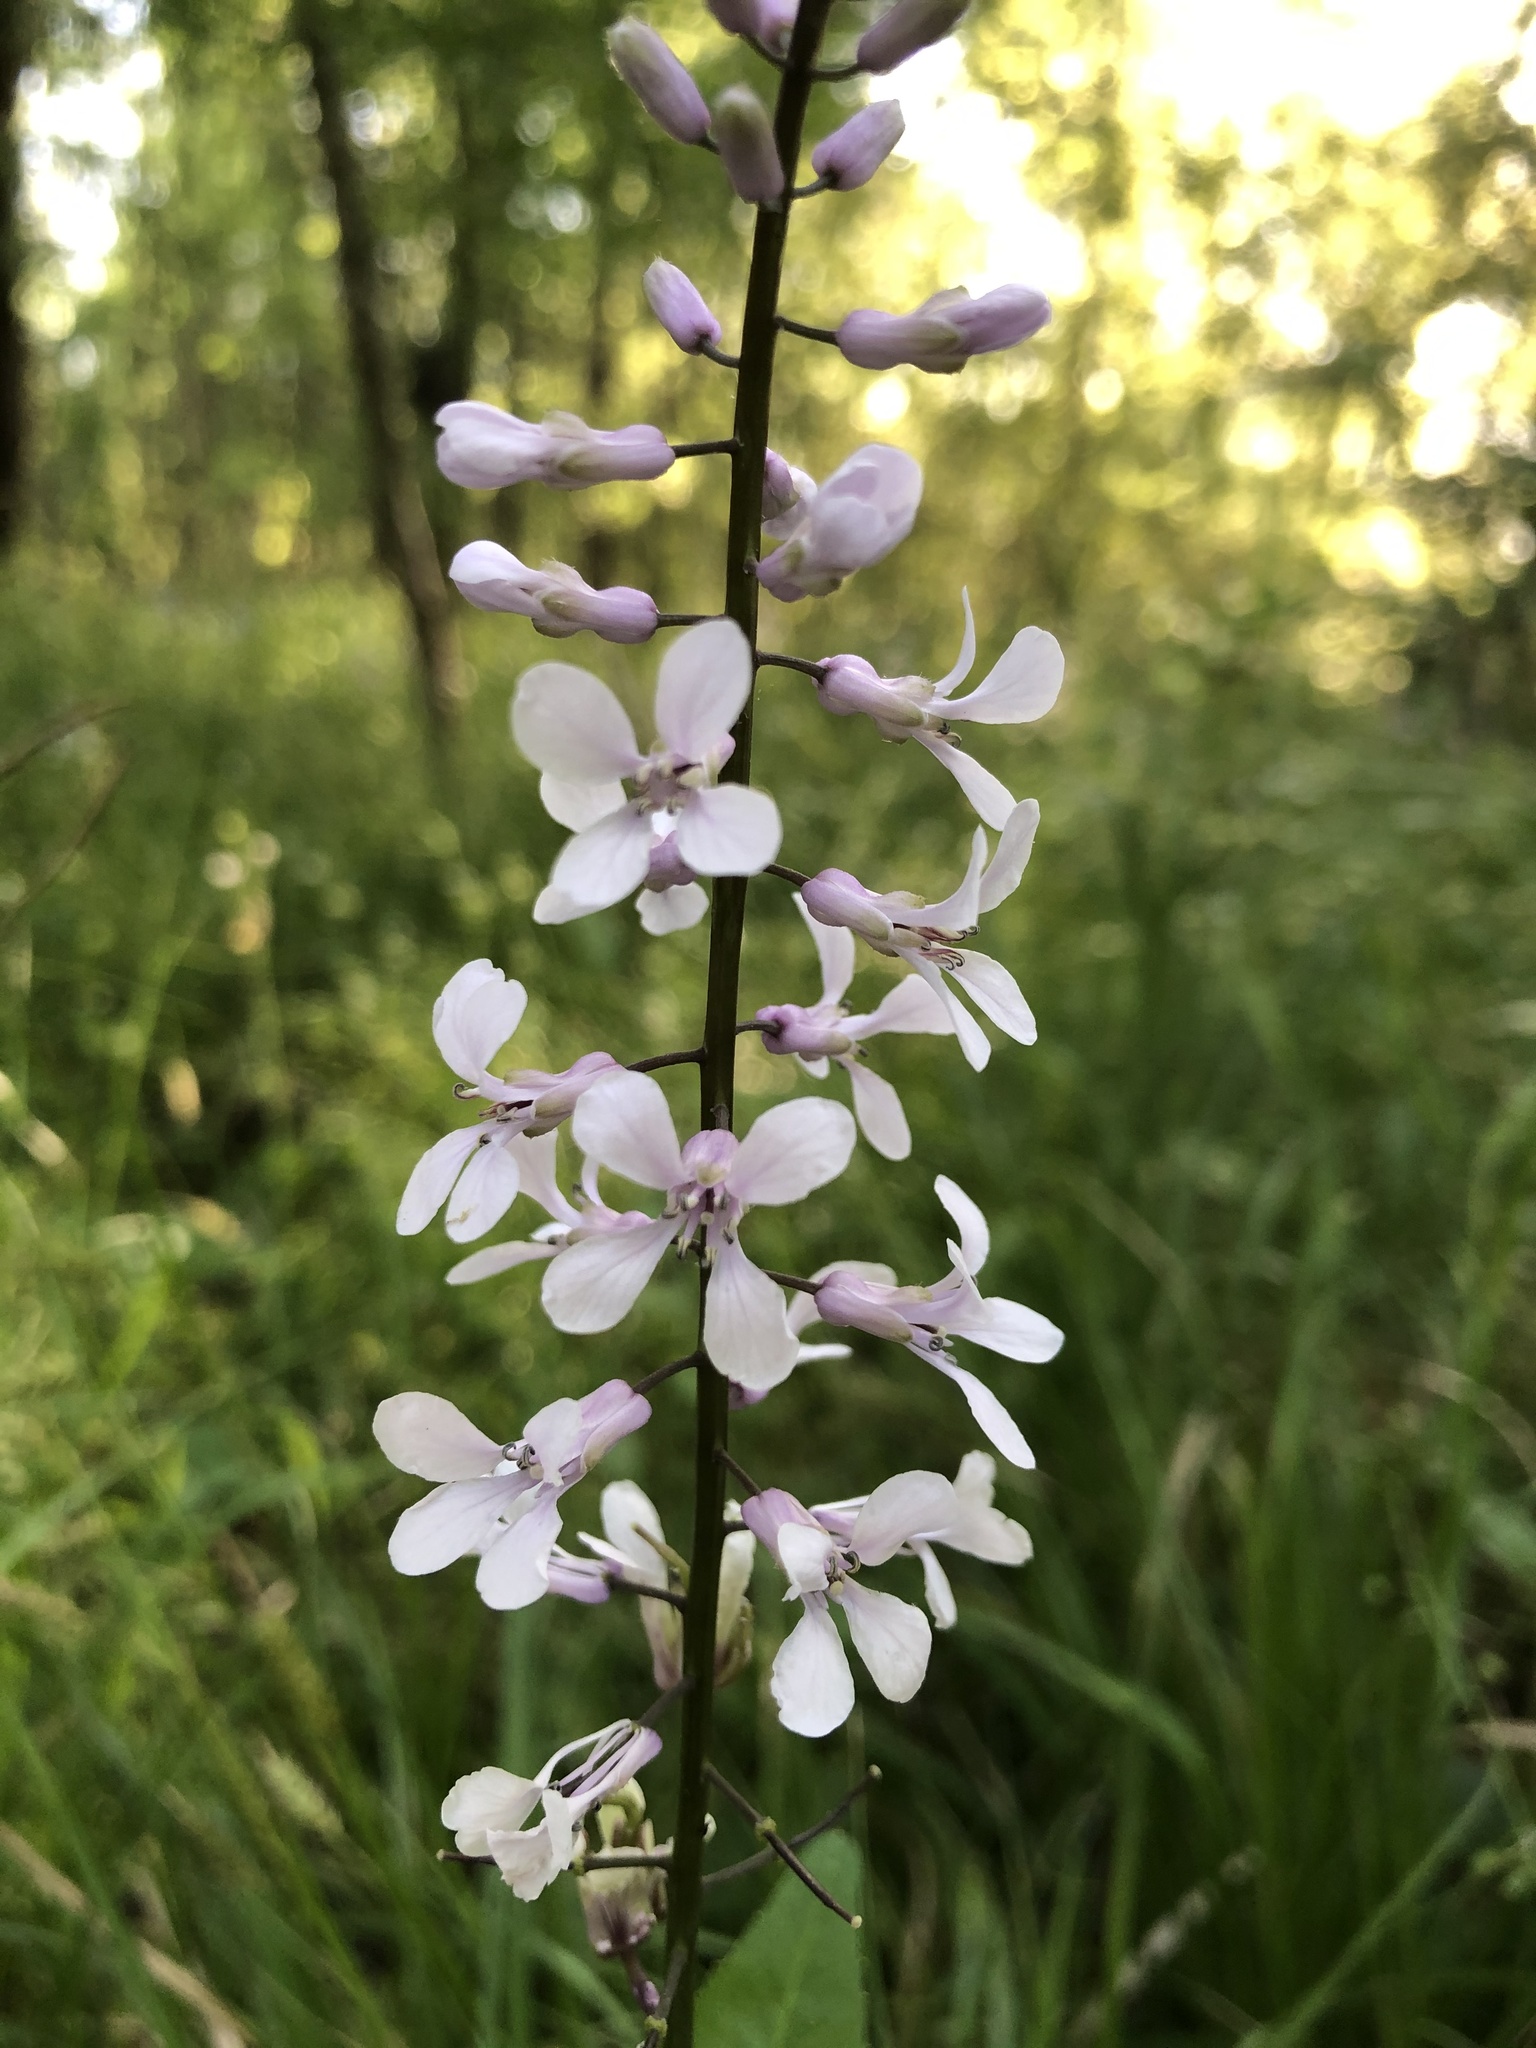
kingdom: Plantae
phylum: Tracheophyta
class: Magnoliopsida
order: Brassicales
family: Brassicaceae
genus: Iodanthus
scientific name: Iodanthus pinnatifidus
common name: Violet rocket
